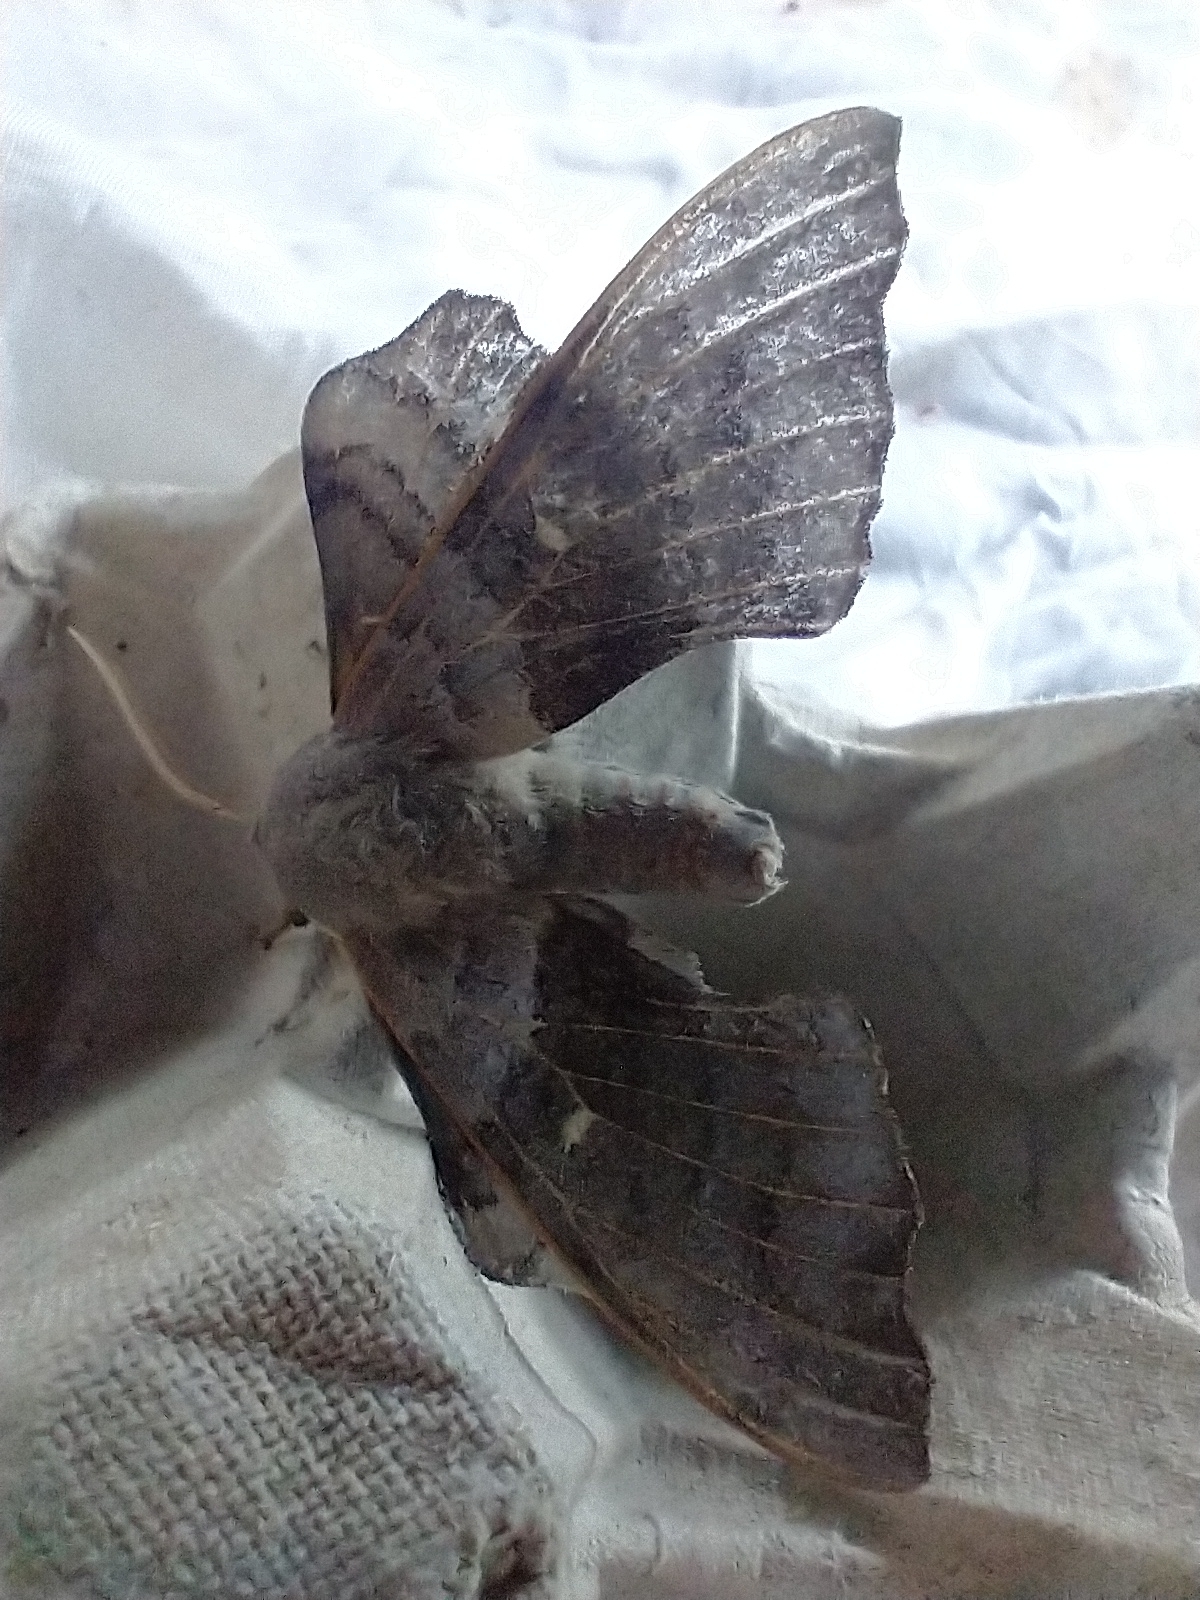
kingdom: Animalia
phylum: Arthropoda
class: Insecta
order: Lepidoptera
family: Sphingidae
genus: Laothoe
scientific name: Laothoe populi
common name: Poplar hawk-moth
